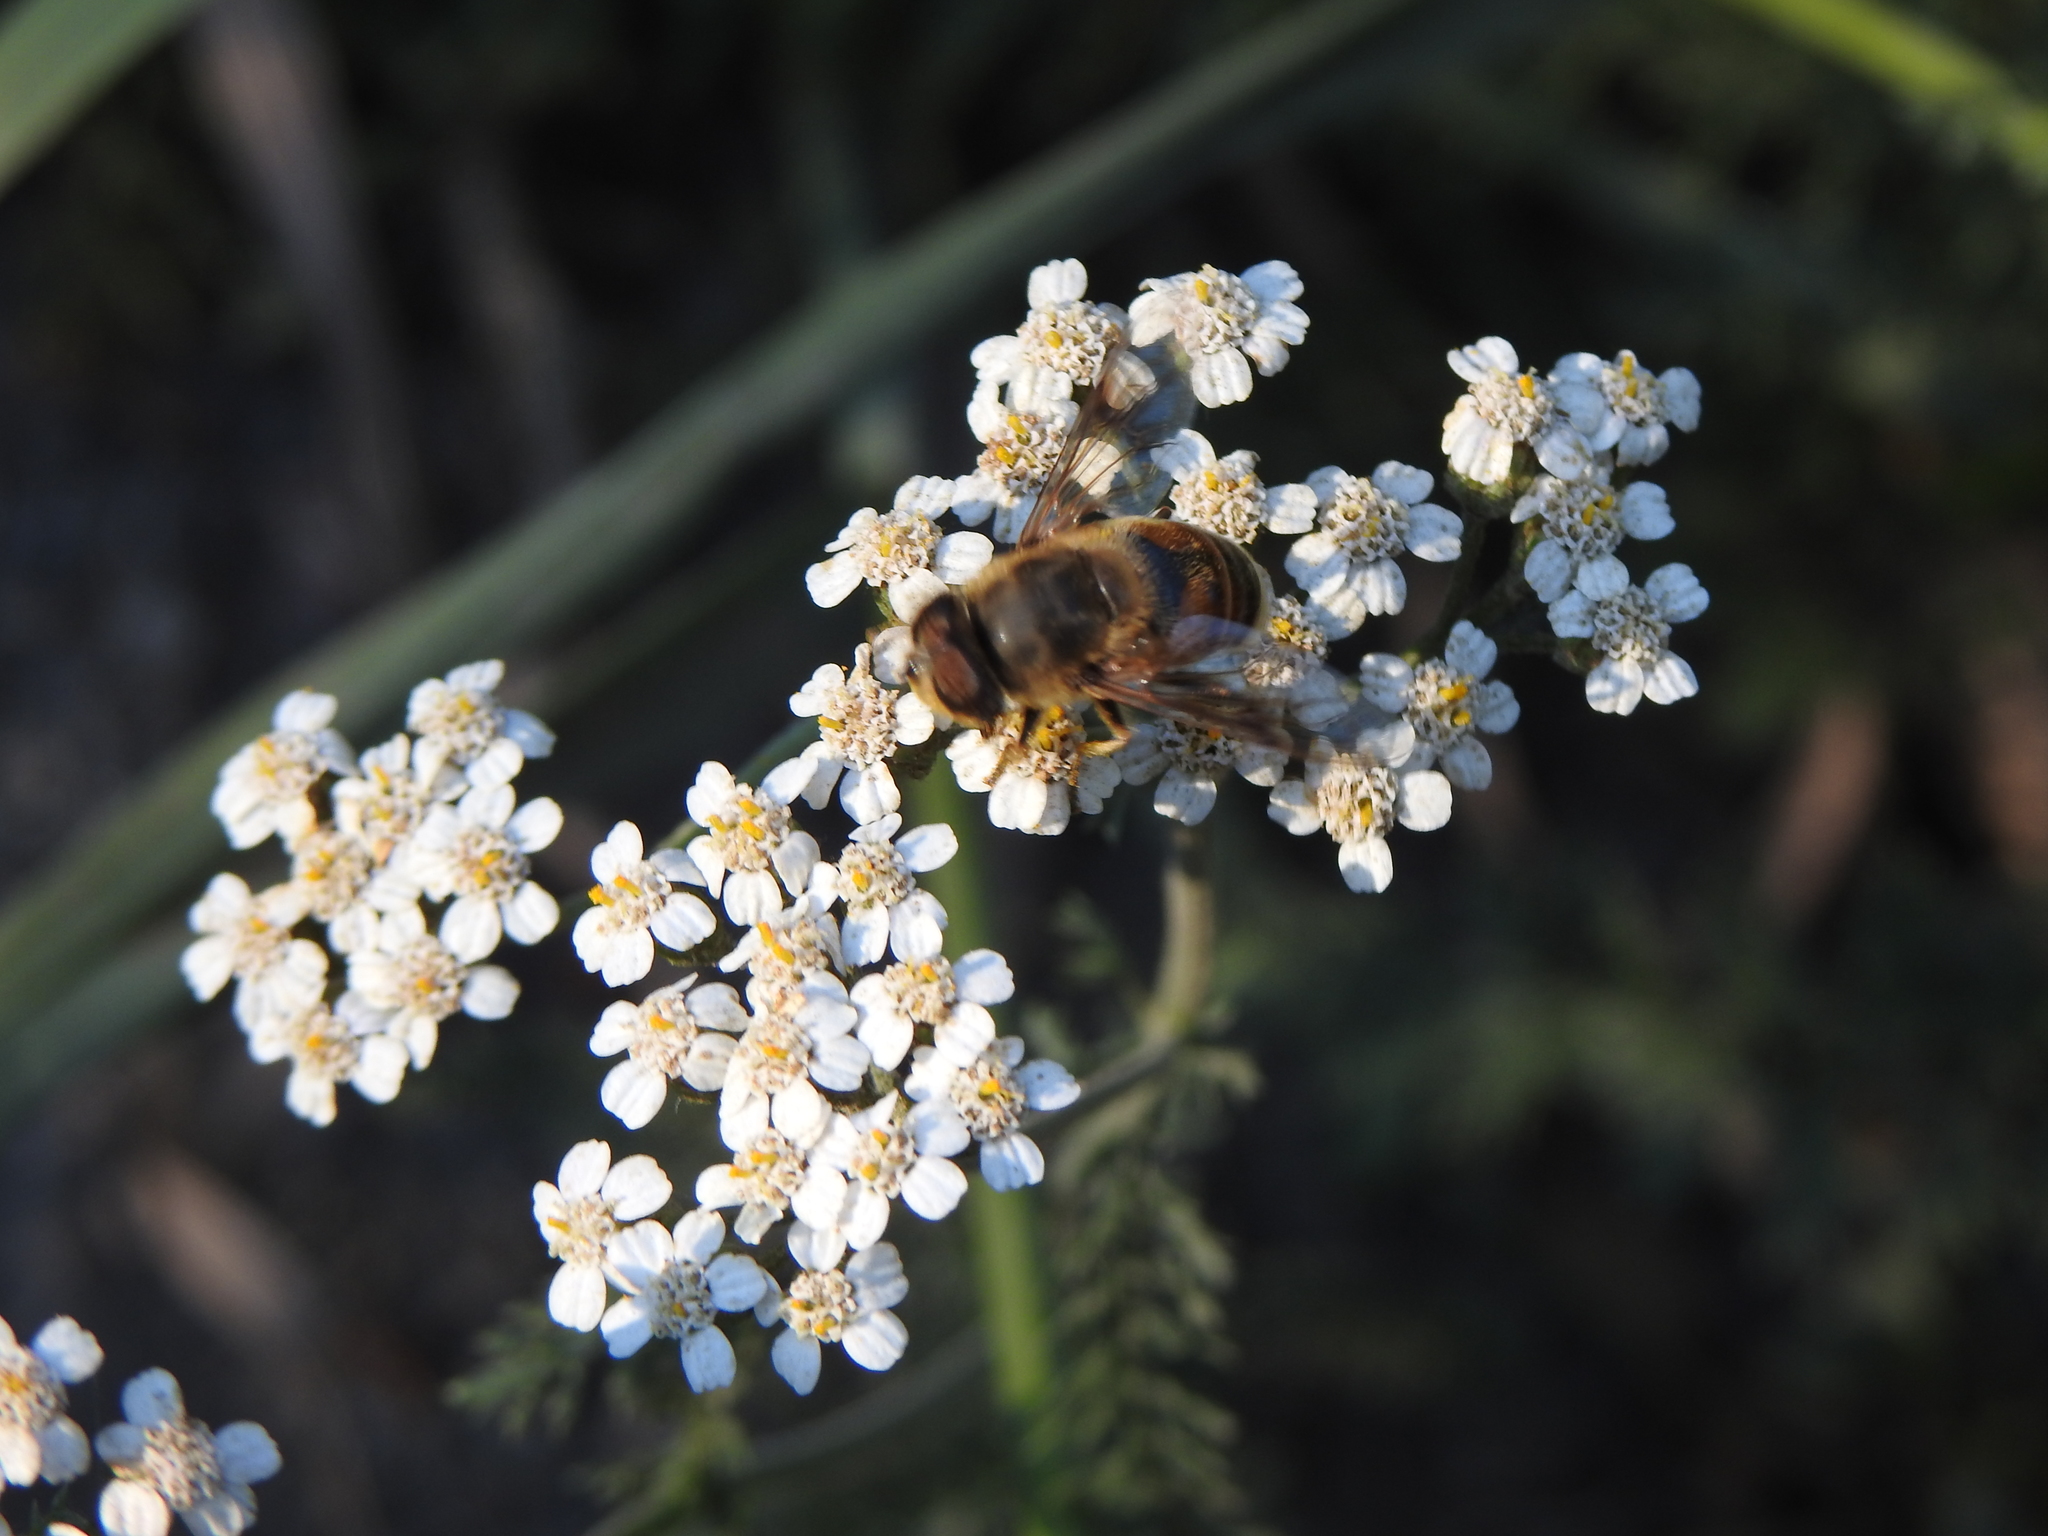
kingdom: Animalia
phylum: Arthropoda
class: Insecta
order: Diptera
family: Syrphidae
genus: Eristalis
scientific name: Eristalis tenax
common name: Drone fly
